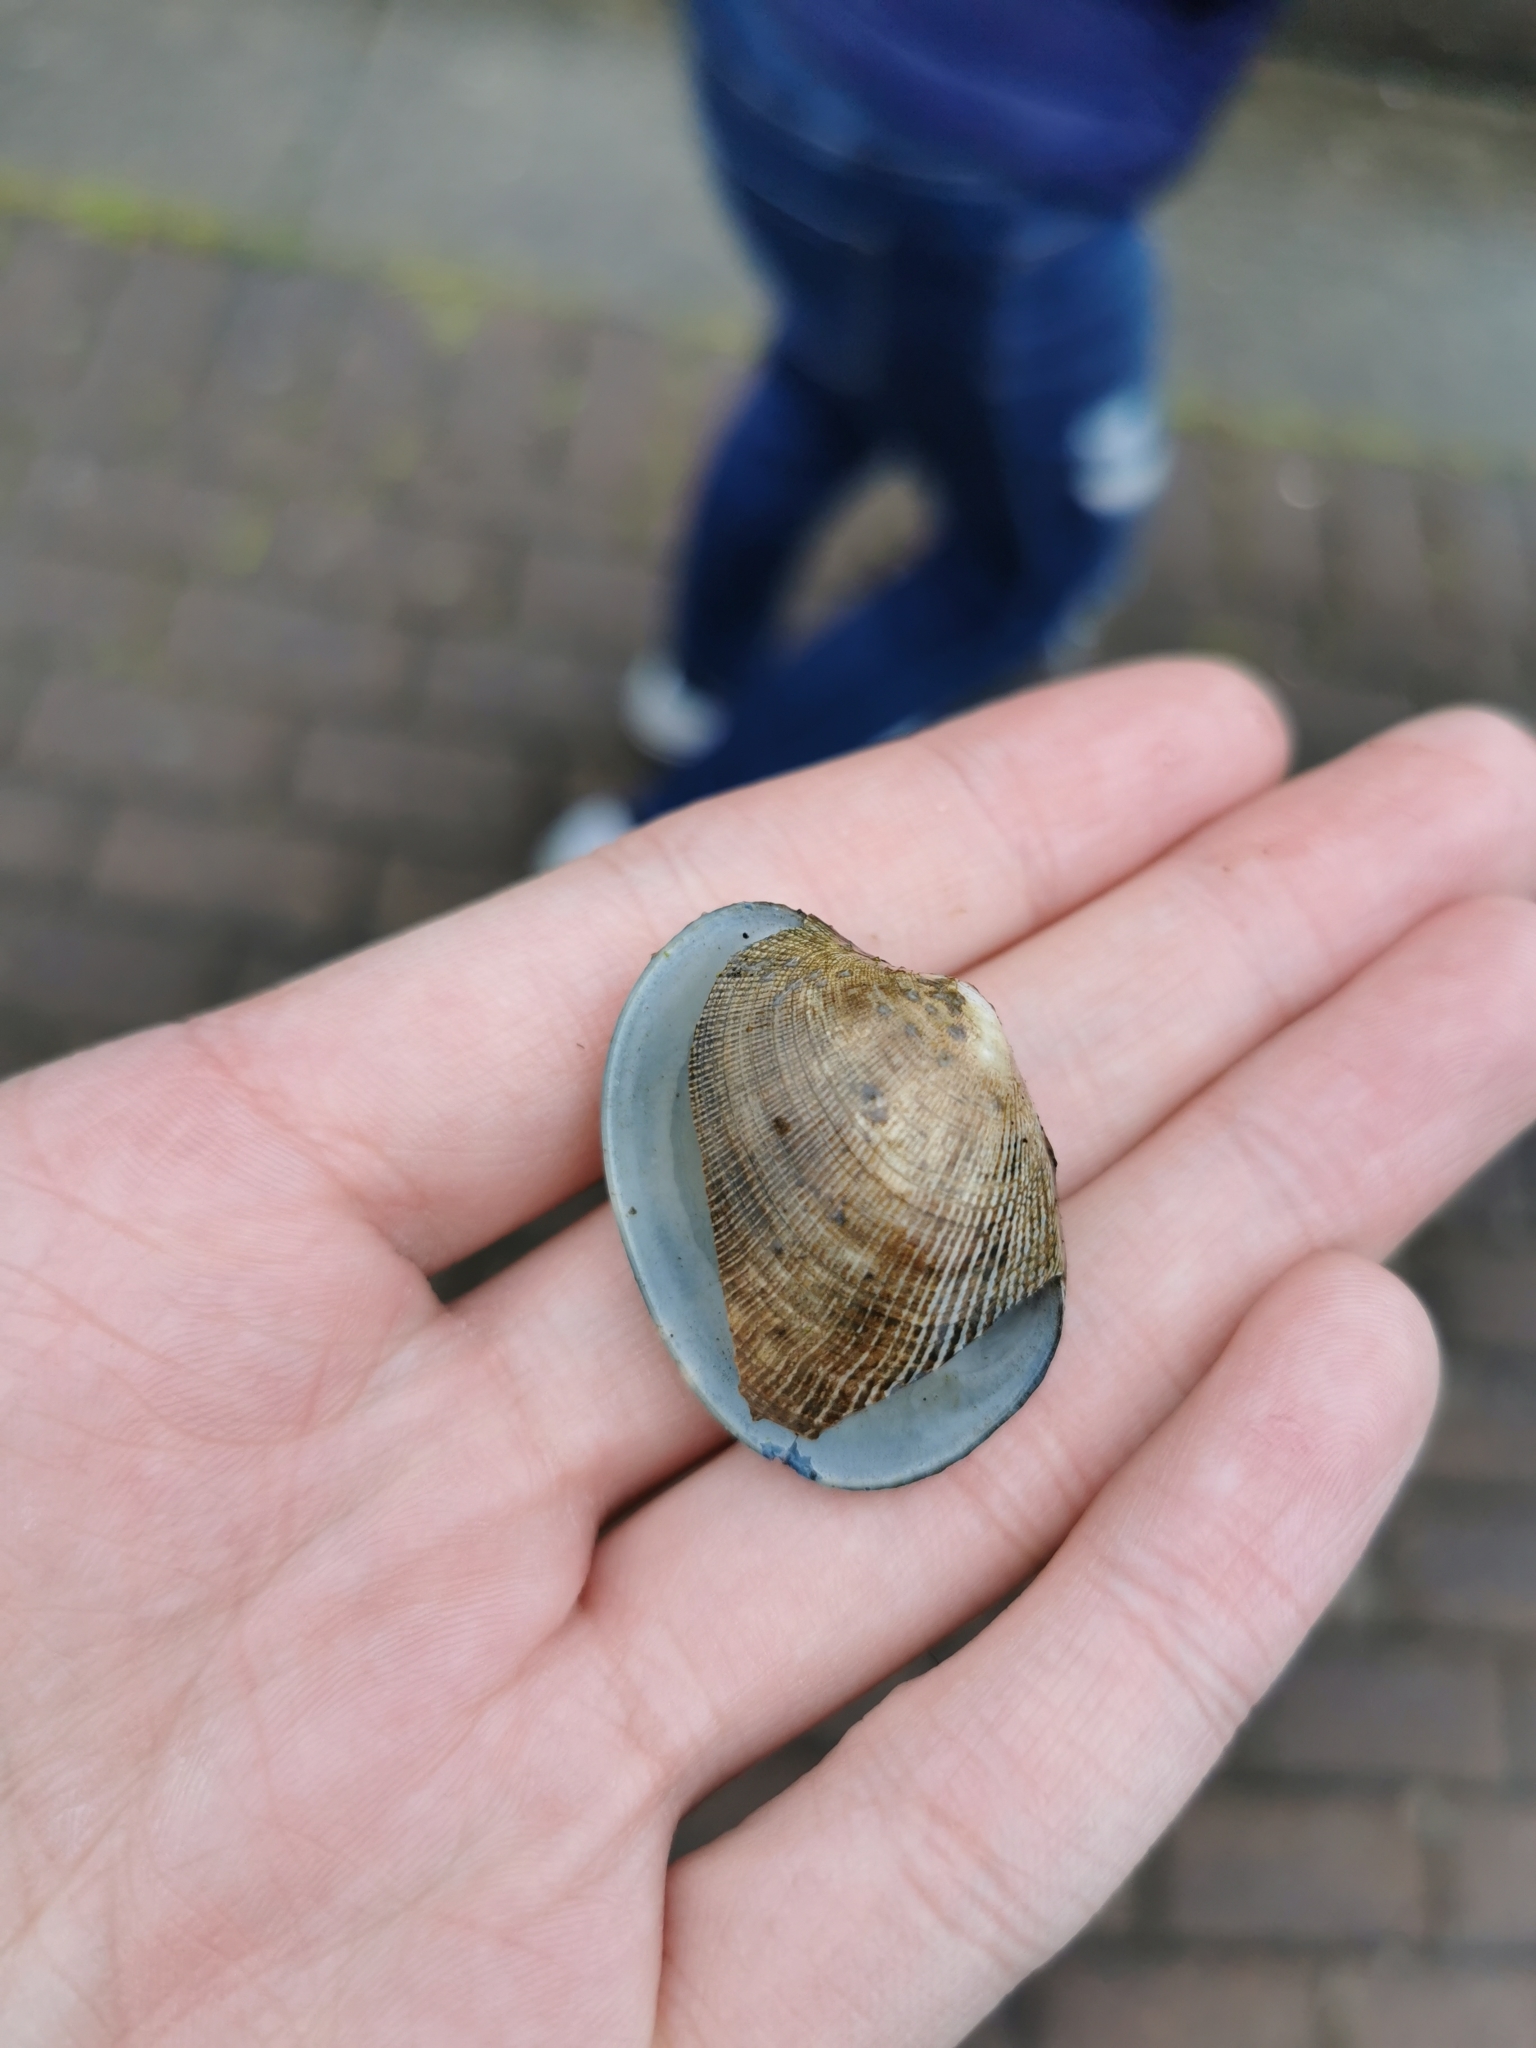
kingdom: Animalia
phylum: Mollusca
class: Bivalvia
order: Venerida
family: Veneridae
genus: Ruditapes
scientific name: Ruditapes philippinarum
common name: Manila clam
